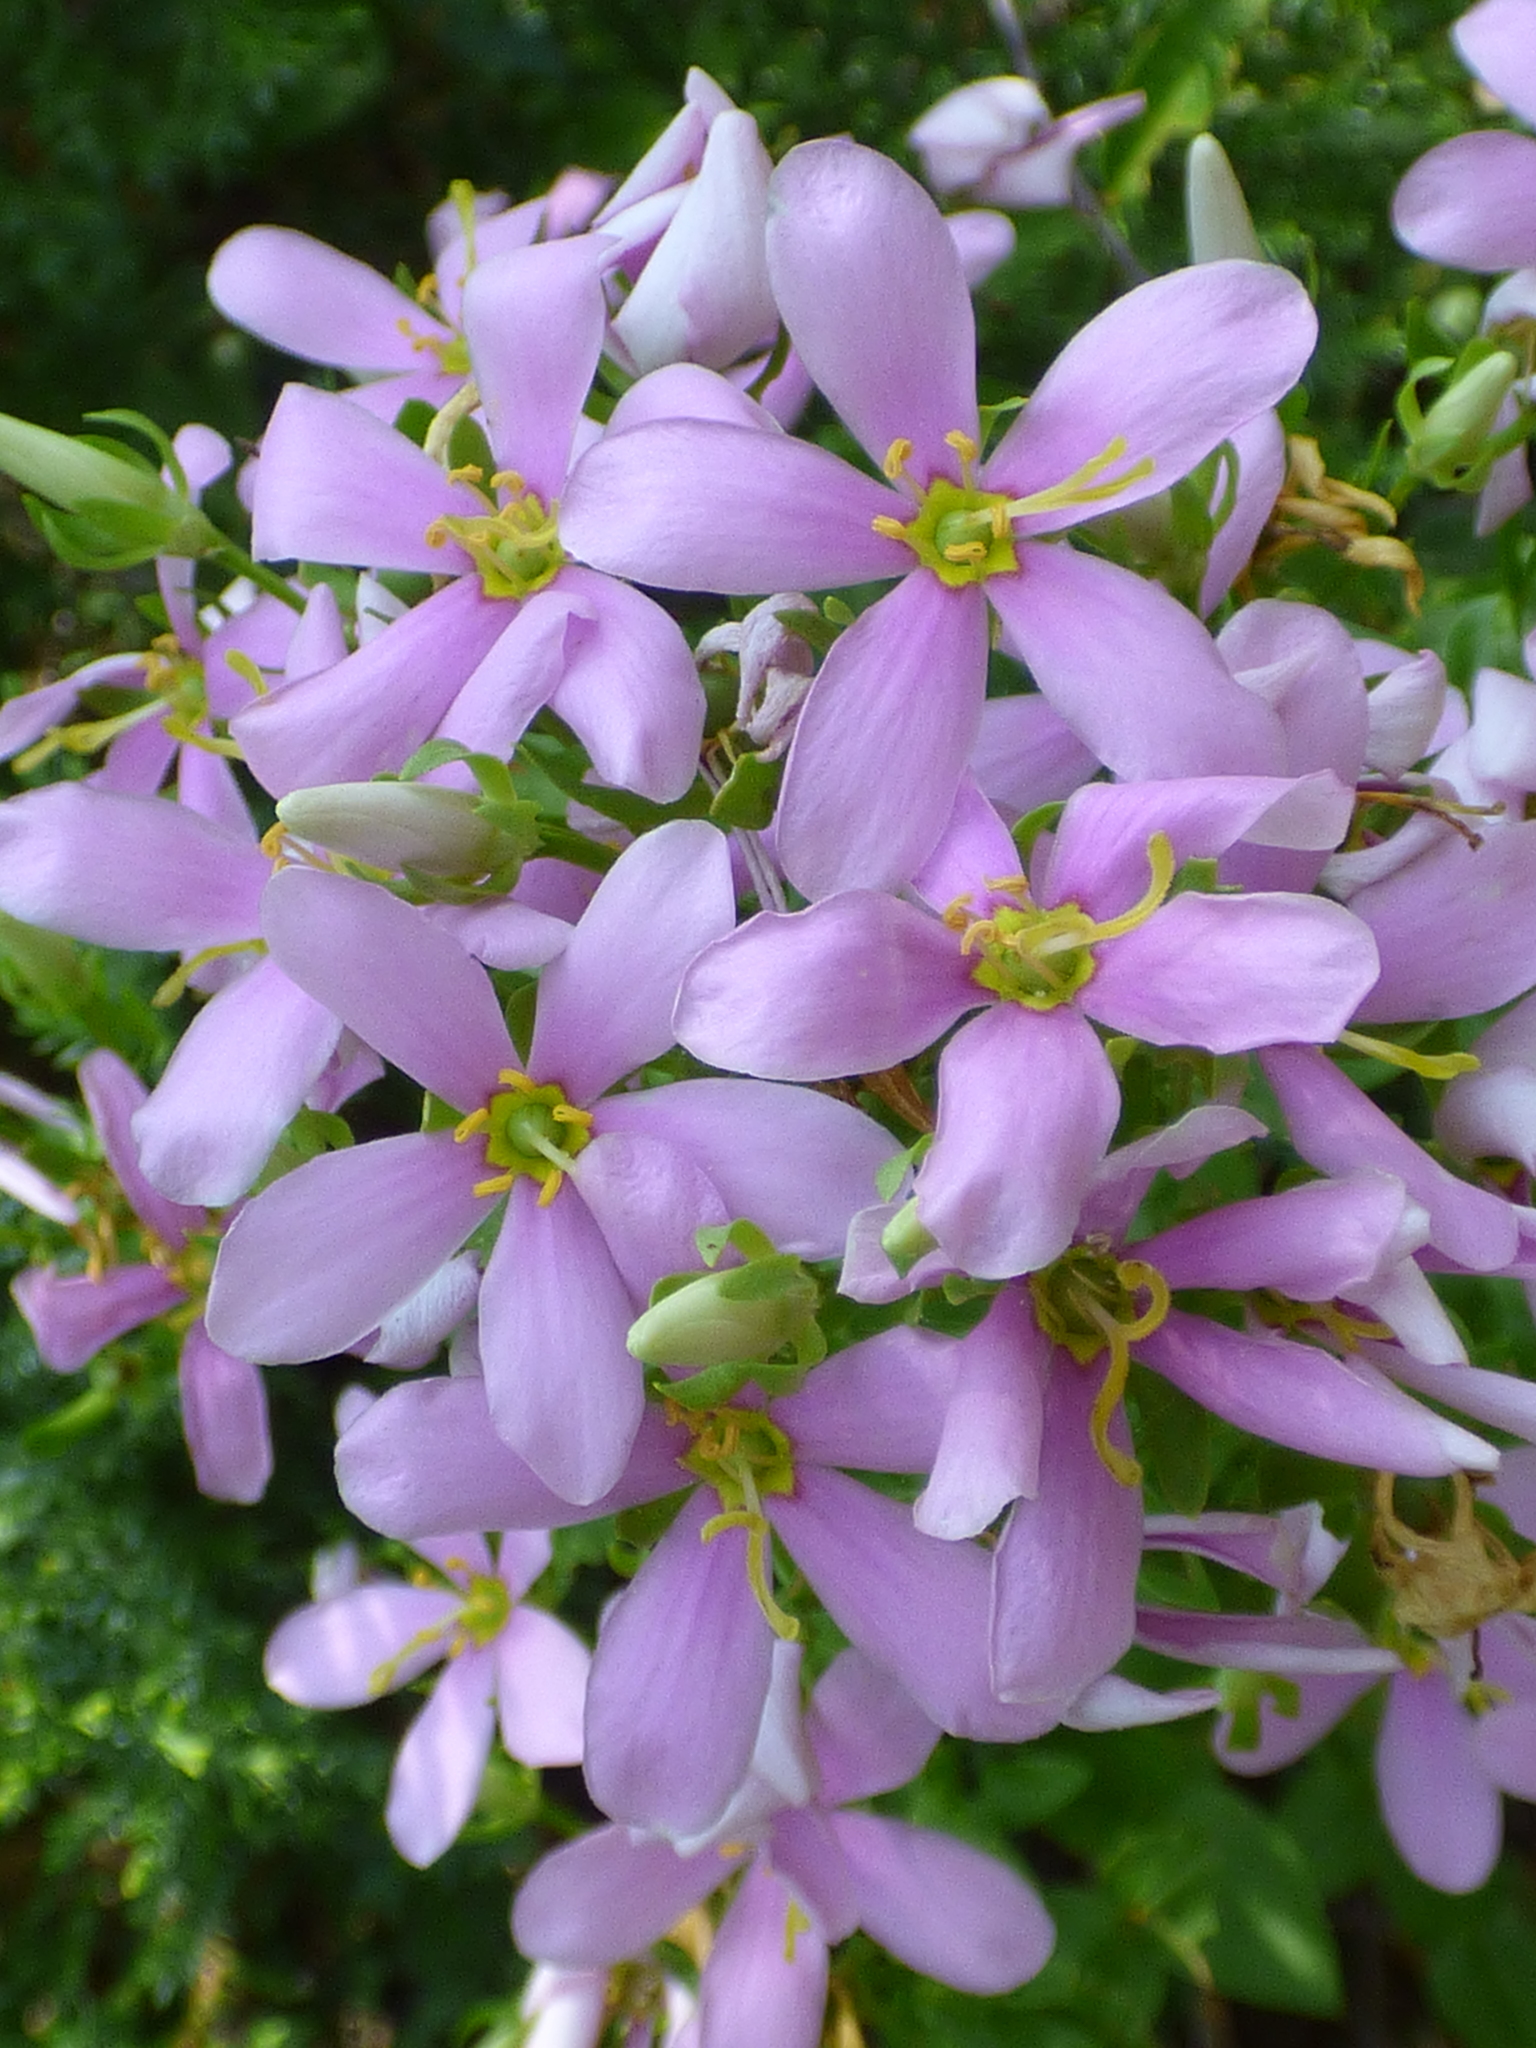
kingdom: Plantae
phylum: Tracheophyta
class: Magnoliopsida
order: Gentianales
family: Gentianaceae
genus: Sabatia
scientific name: Sabatia angularis
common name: Rose-pink
